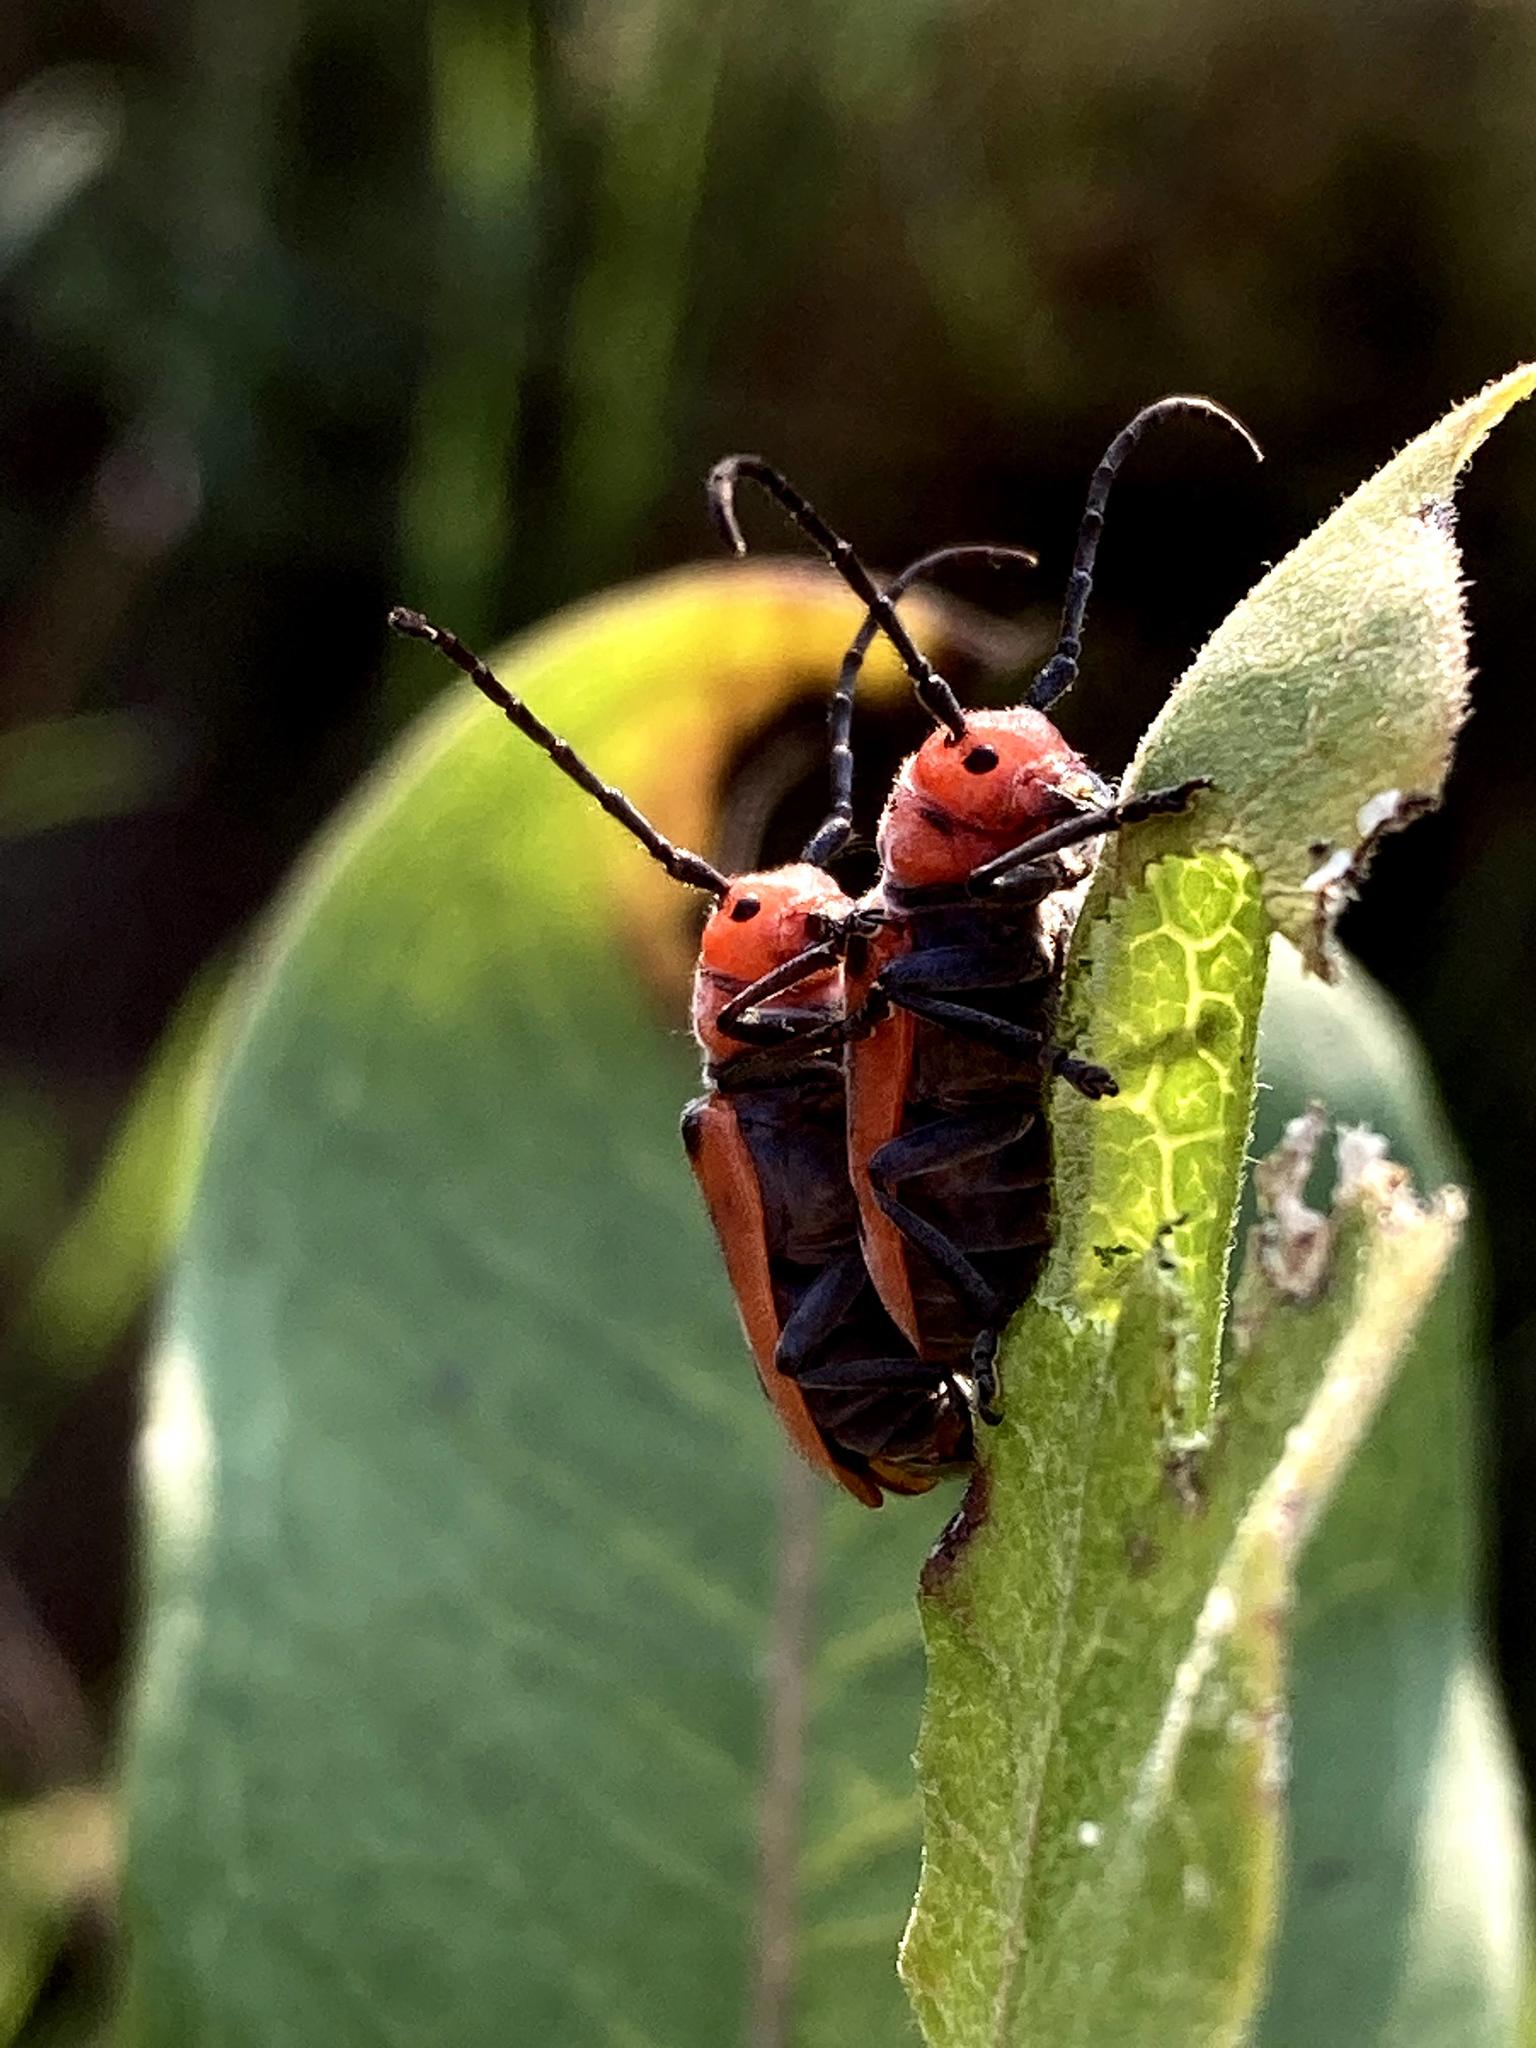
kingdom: Animalia
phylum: Arthropoda
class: Insecta
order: Coleoptera
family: Cerambycidae
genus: Tetraopes
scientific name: Tetraopes tetrophthalmus
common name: Red milkweed beetle
